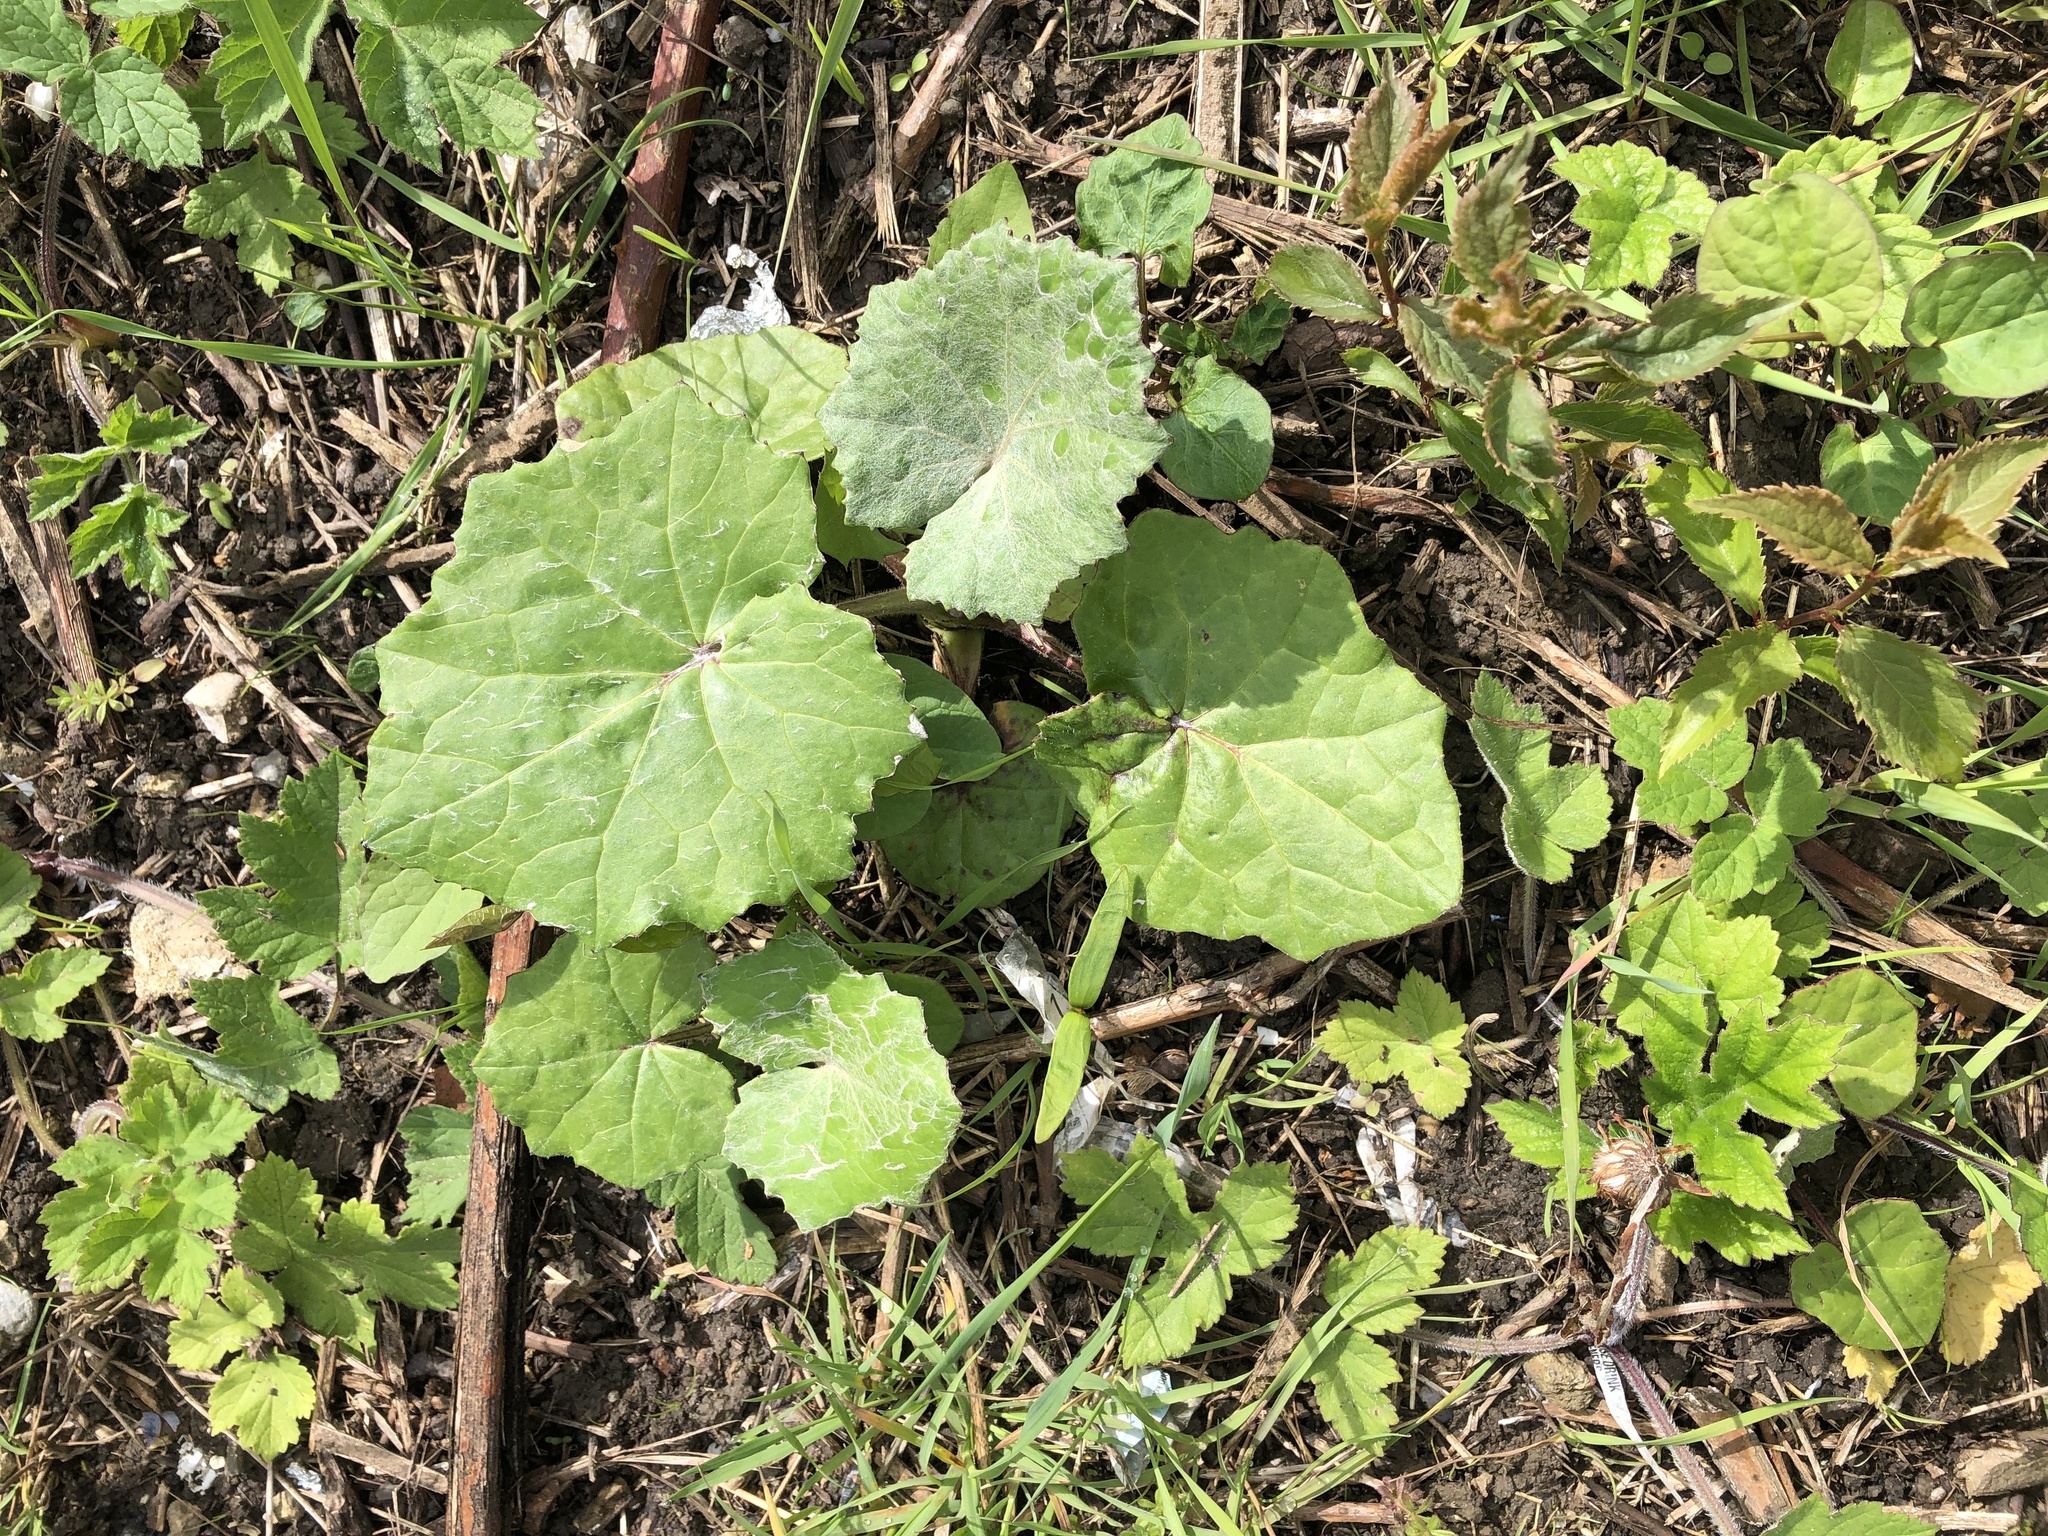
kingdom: Plantae
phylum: Tracheophyta
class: Magnoliopsida
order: Asterales
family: Asteraceae
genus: Tussilago
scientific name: Tussilago farfara
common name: Coltsfoot
